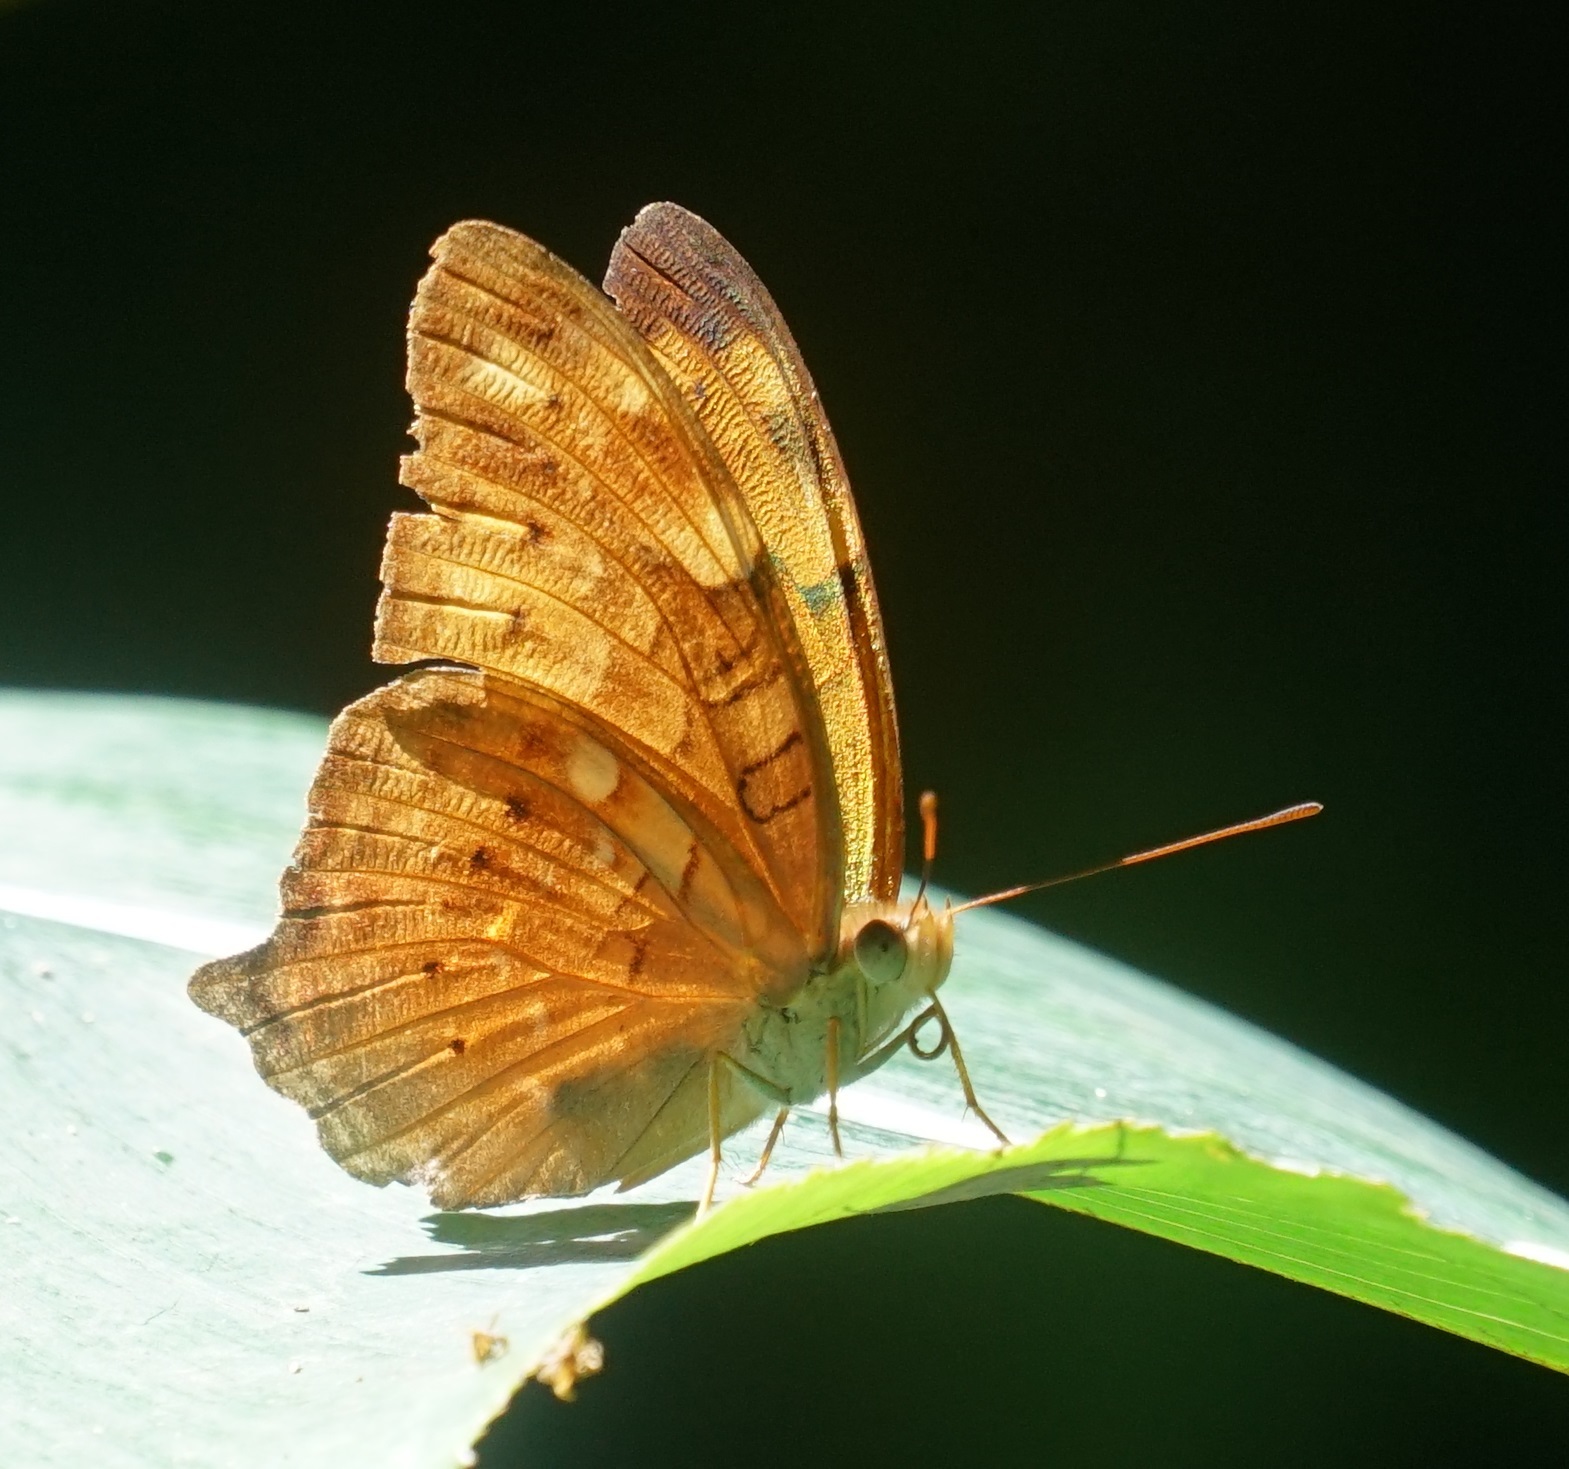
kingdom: Animalia
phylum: Arthropoda
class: Insecta
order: Lepidoptera
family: Nymphalidae
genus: Vagrans
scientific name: Vagrans egista
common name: Tailed rustic
